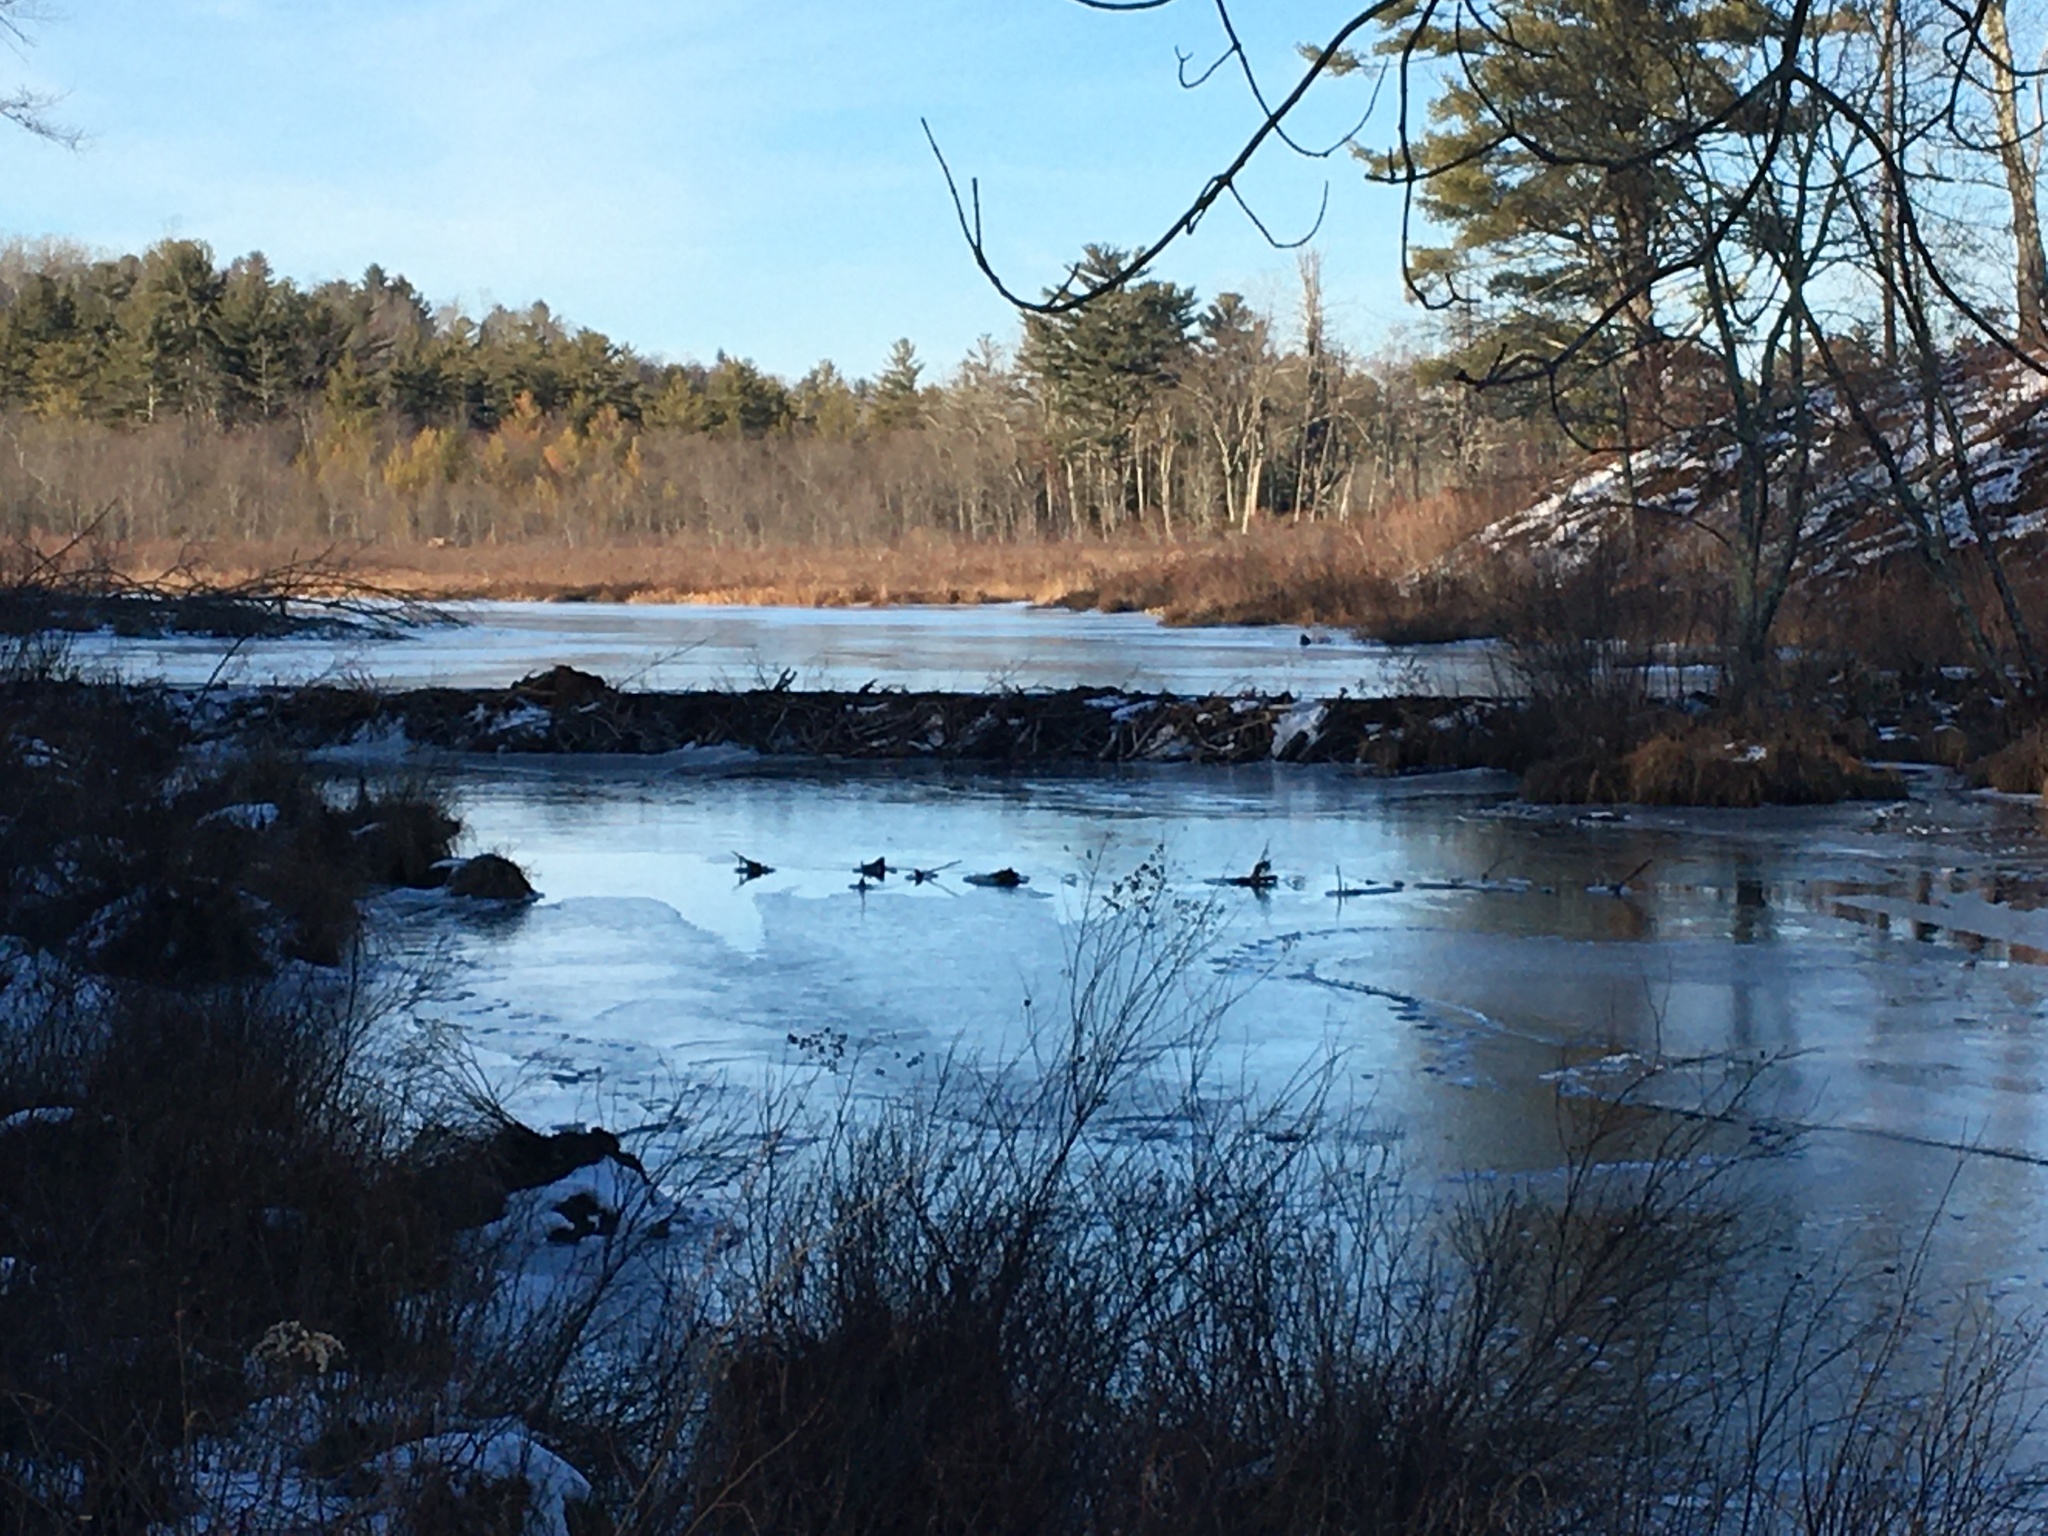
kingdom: Animalia
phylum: Chordata
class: Mammalia
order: Rodentia
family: Castoridae
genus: Castor
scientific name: Castor canadensis
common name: American beaver
